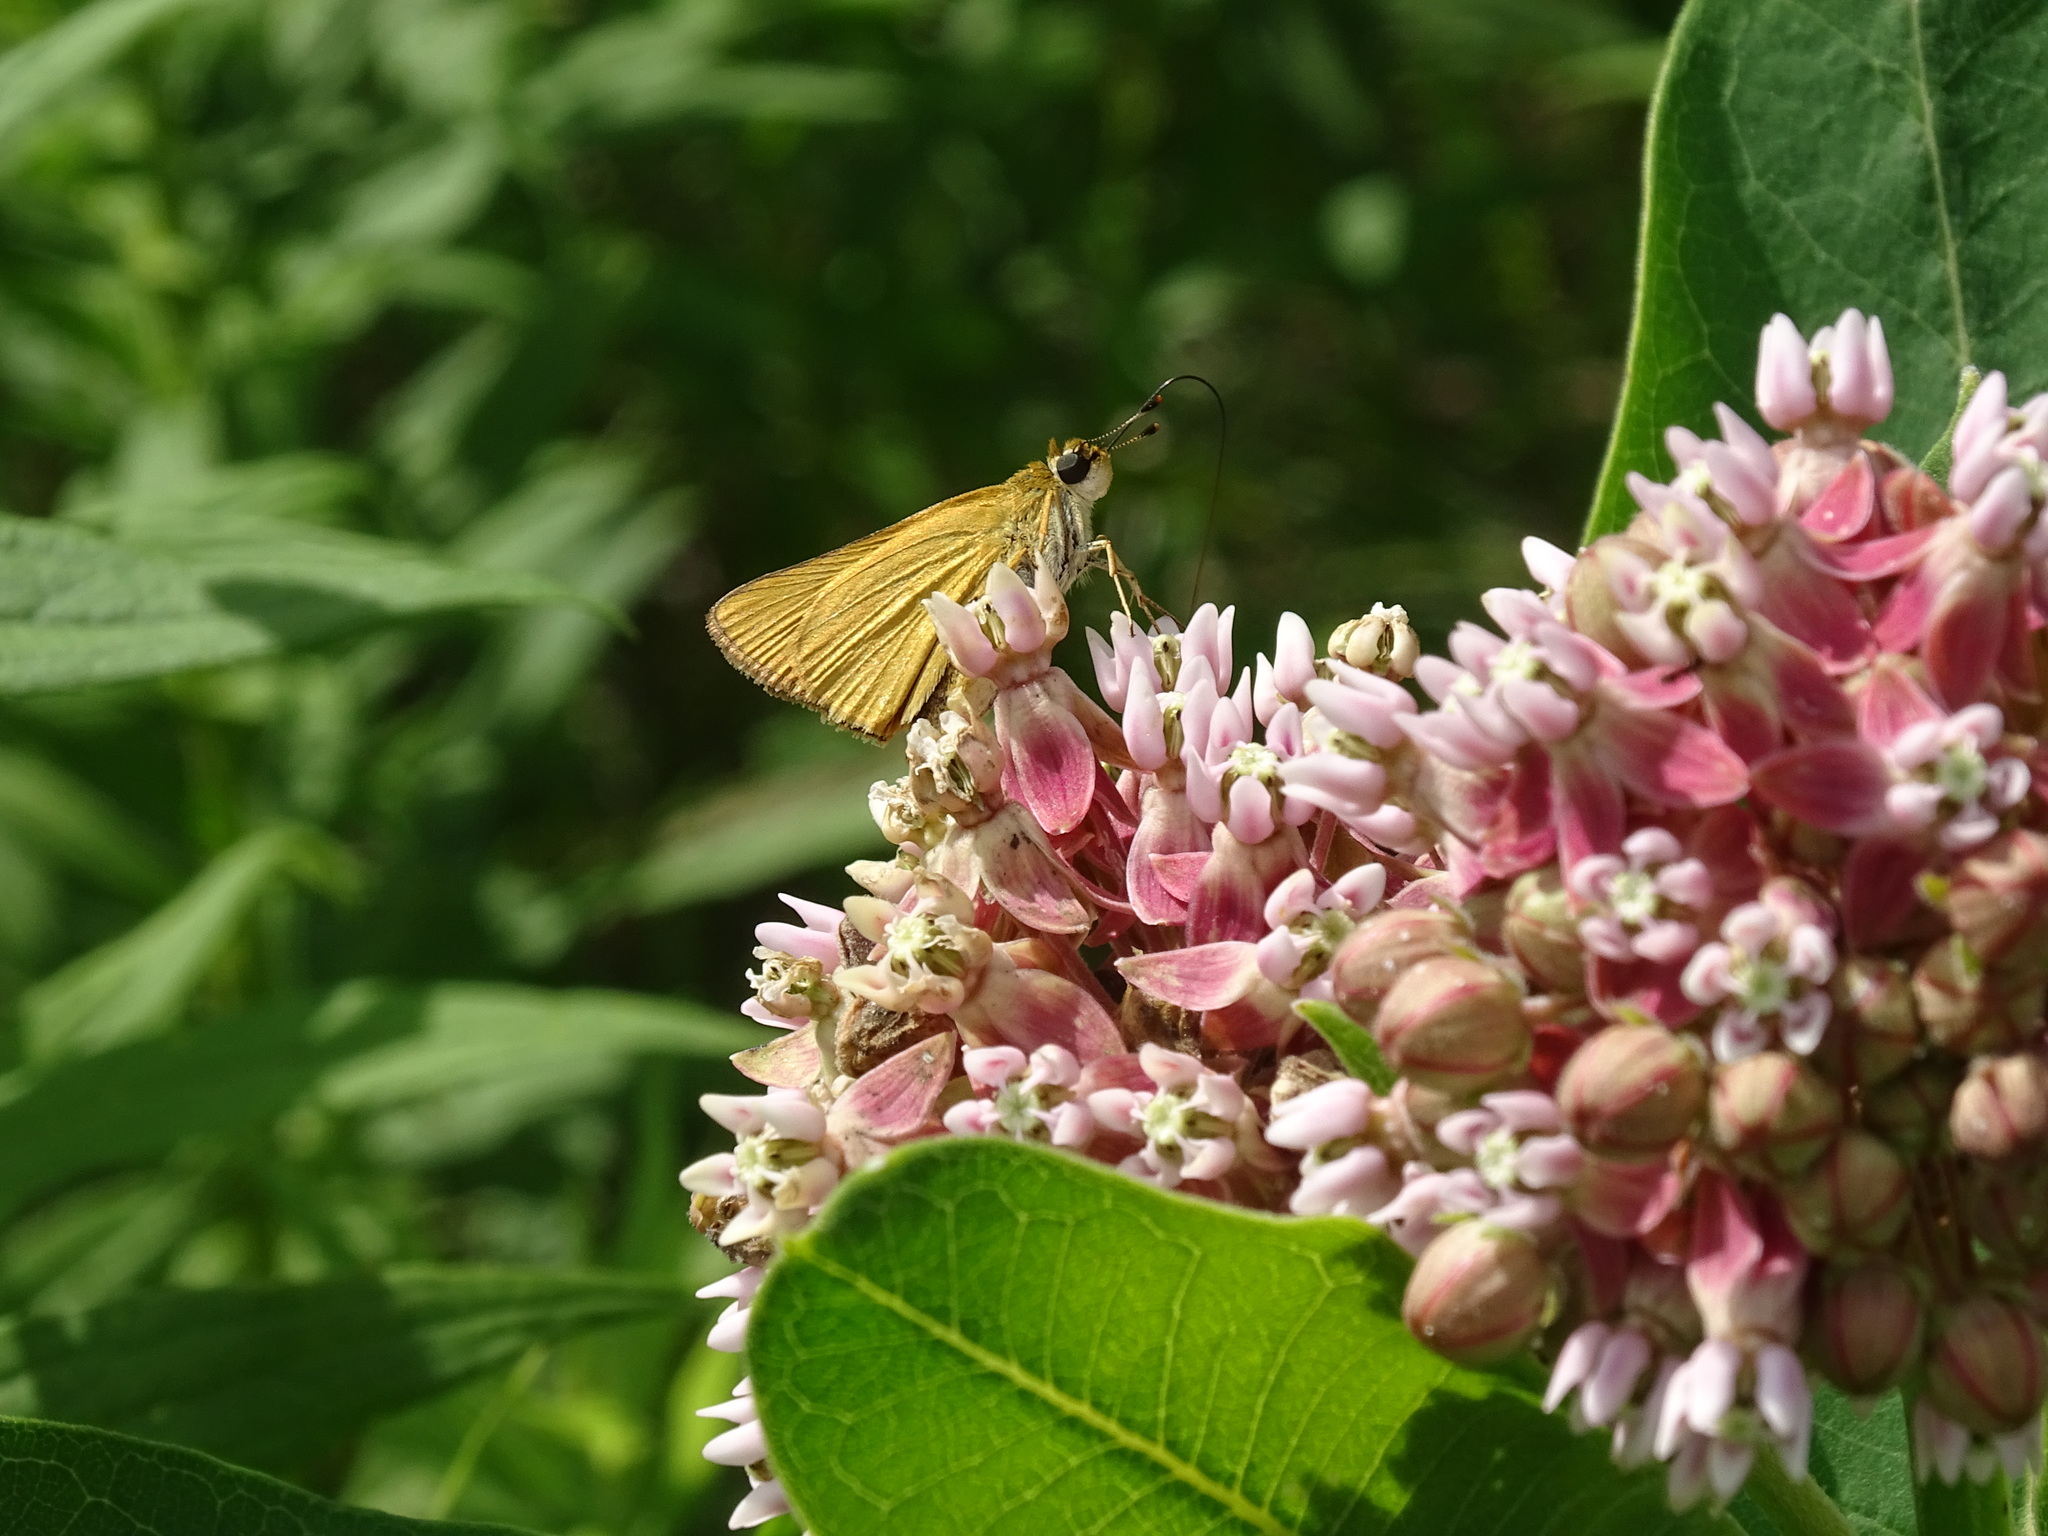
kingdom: Animalia
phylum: Arthropoda
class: Insecta
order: Lepidoptera
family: Hesperiidae
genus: Atrytone
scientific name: Atrytone delaware
